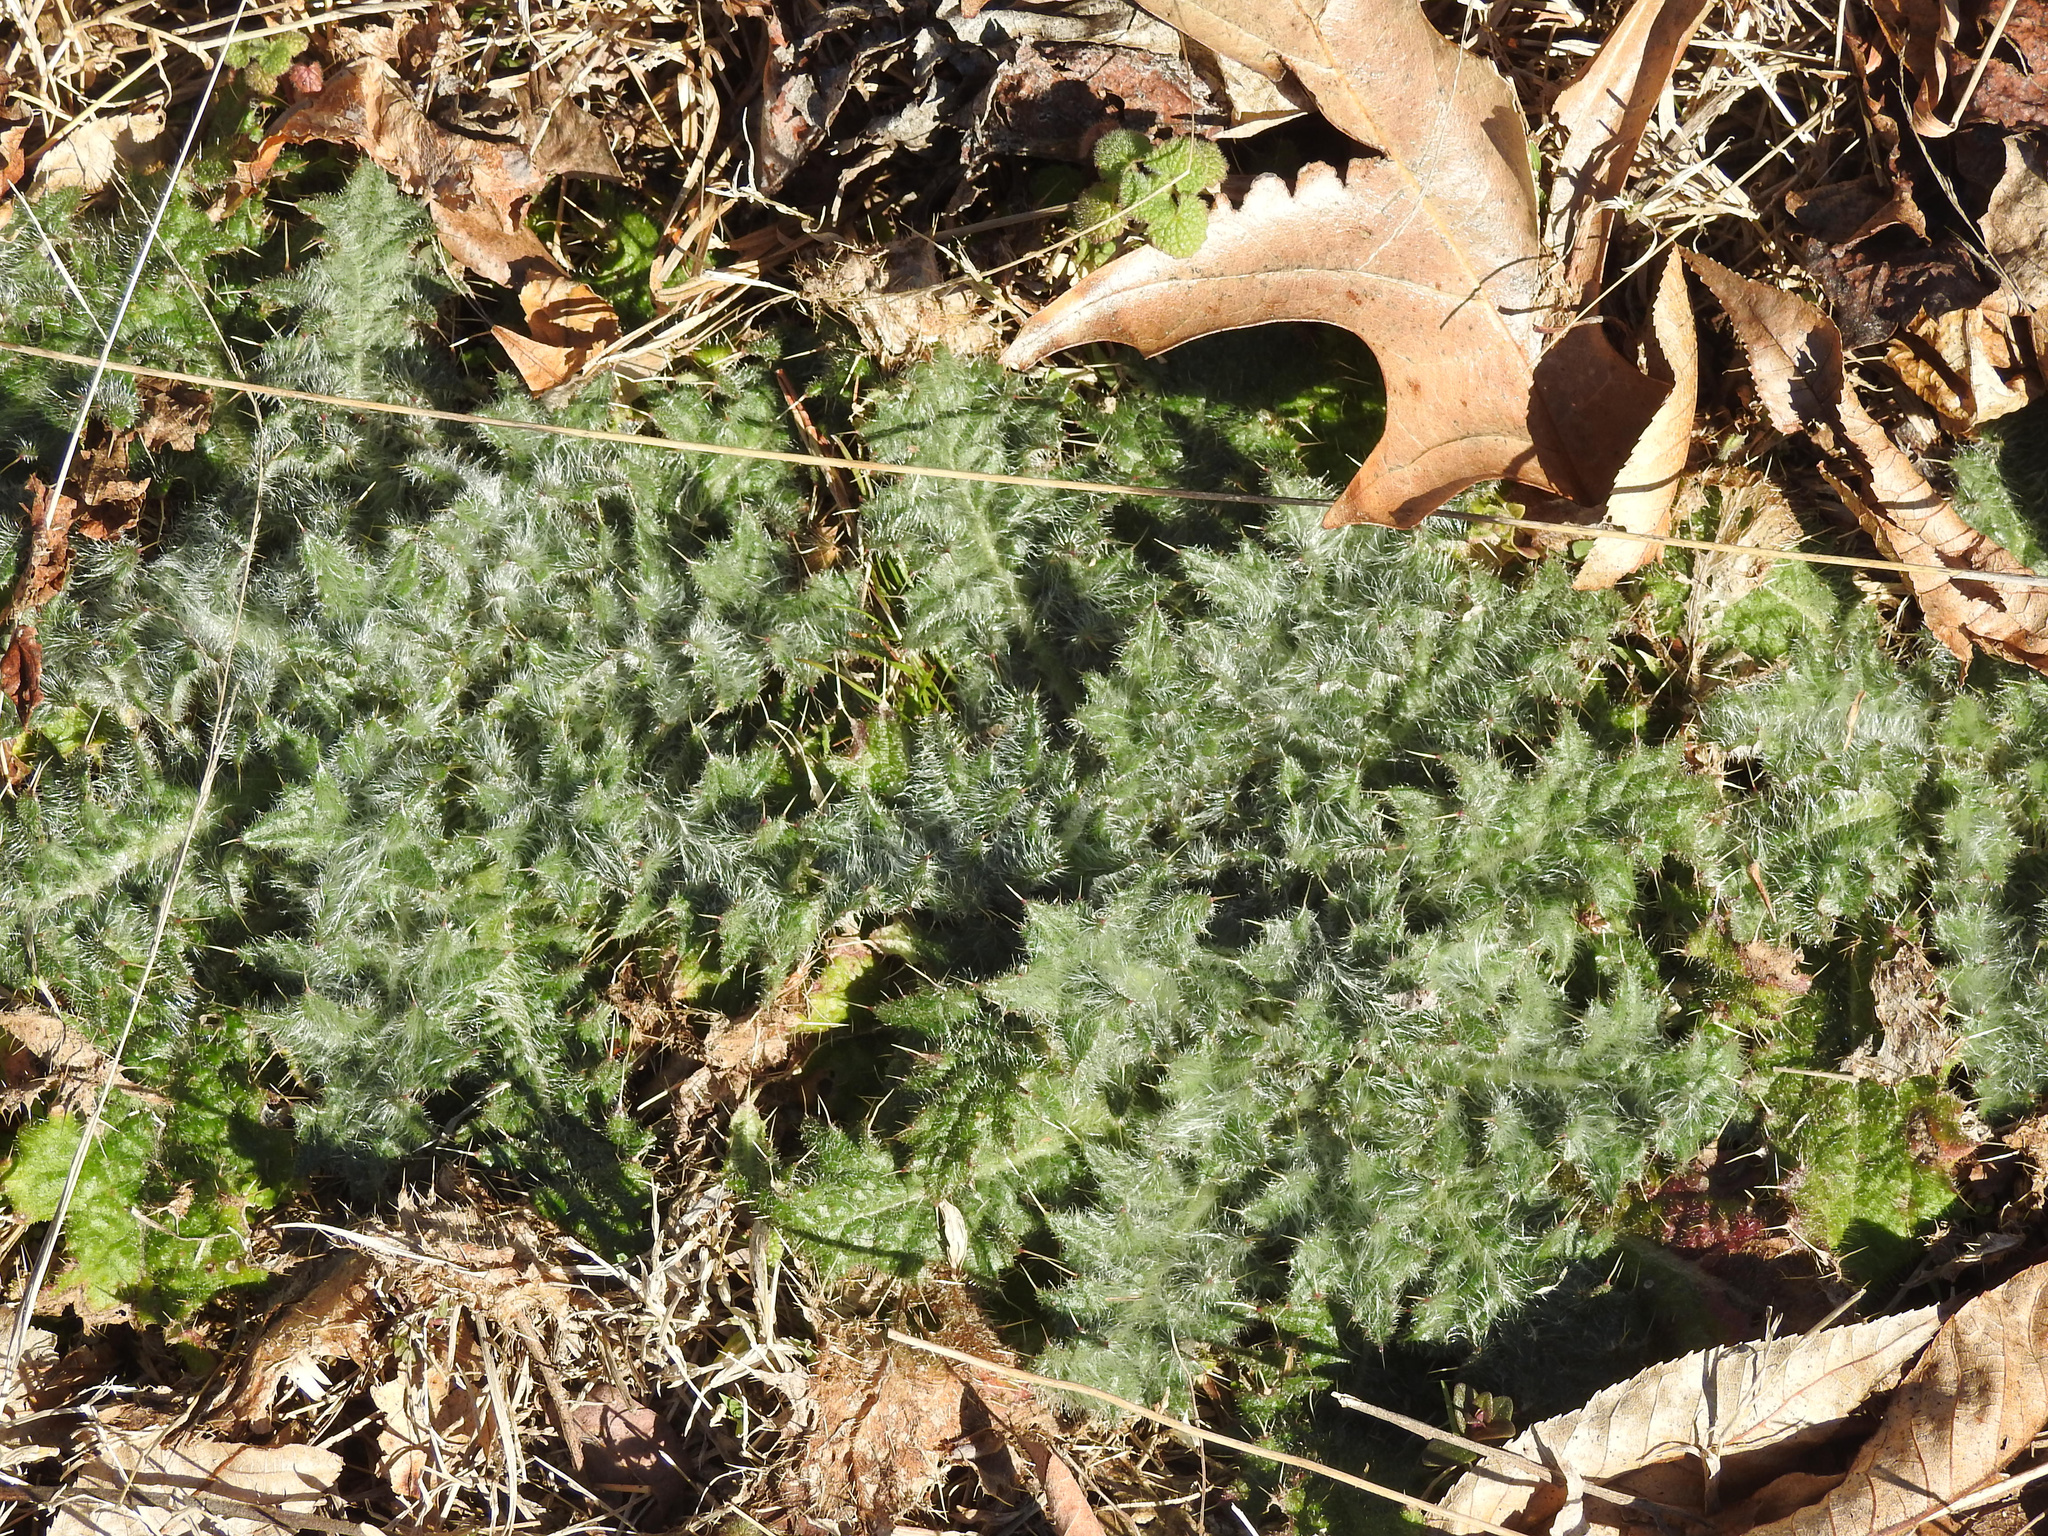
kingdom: Plantae
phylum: Tracheophyta
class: Magnoliopsida
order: Asterales
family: Asteraceae
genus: Cirsium
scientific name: Cirsium vulgare
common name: Bull thistle
